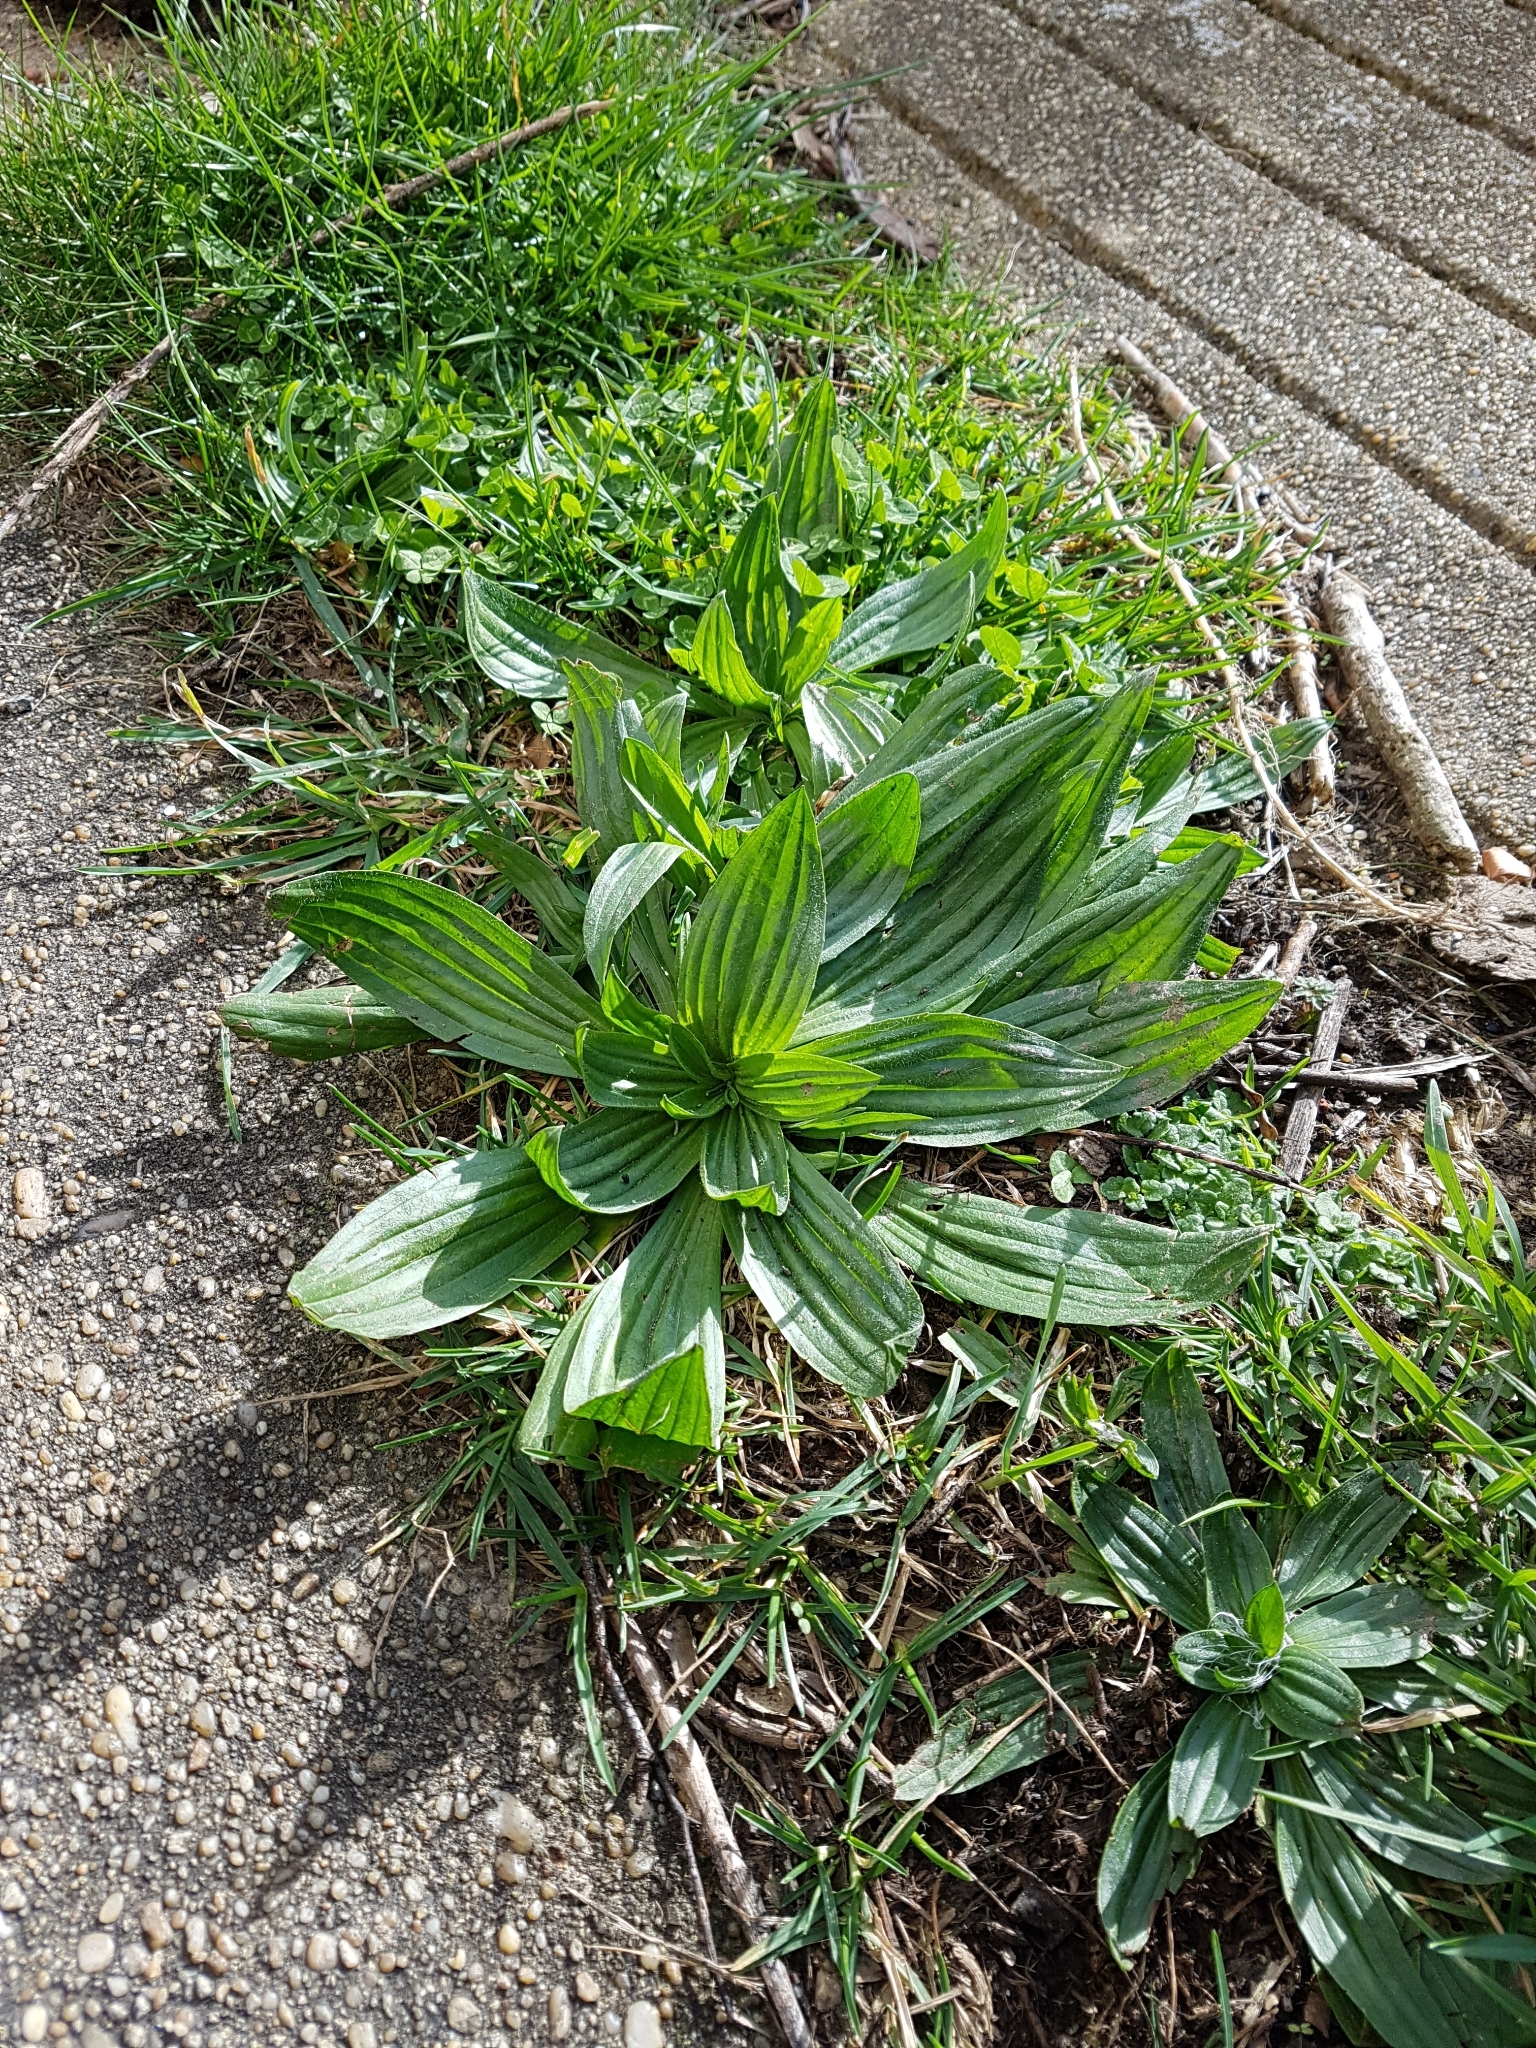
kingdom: Plantae
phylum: Tracheophyta
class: Magnoliopsida
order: Lamiales
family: Plantaginaceae
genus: Plantago
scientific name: Plantago australis
